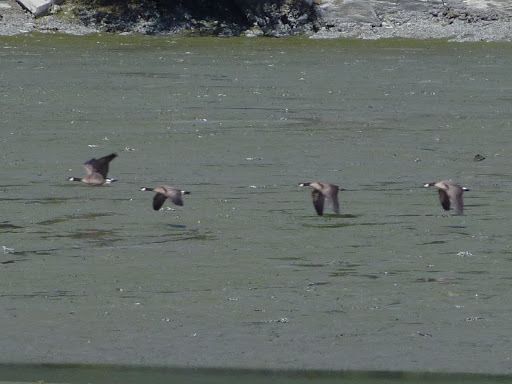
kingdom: Animalia
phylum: Chordata
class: Aves
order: Anseriformes
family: Anatidae
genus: Branta
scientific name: Branta canadensis
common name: Canada goose
